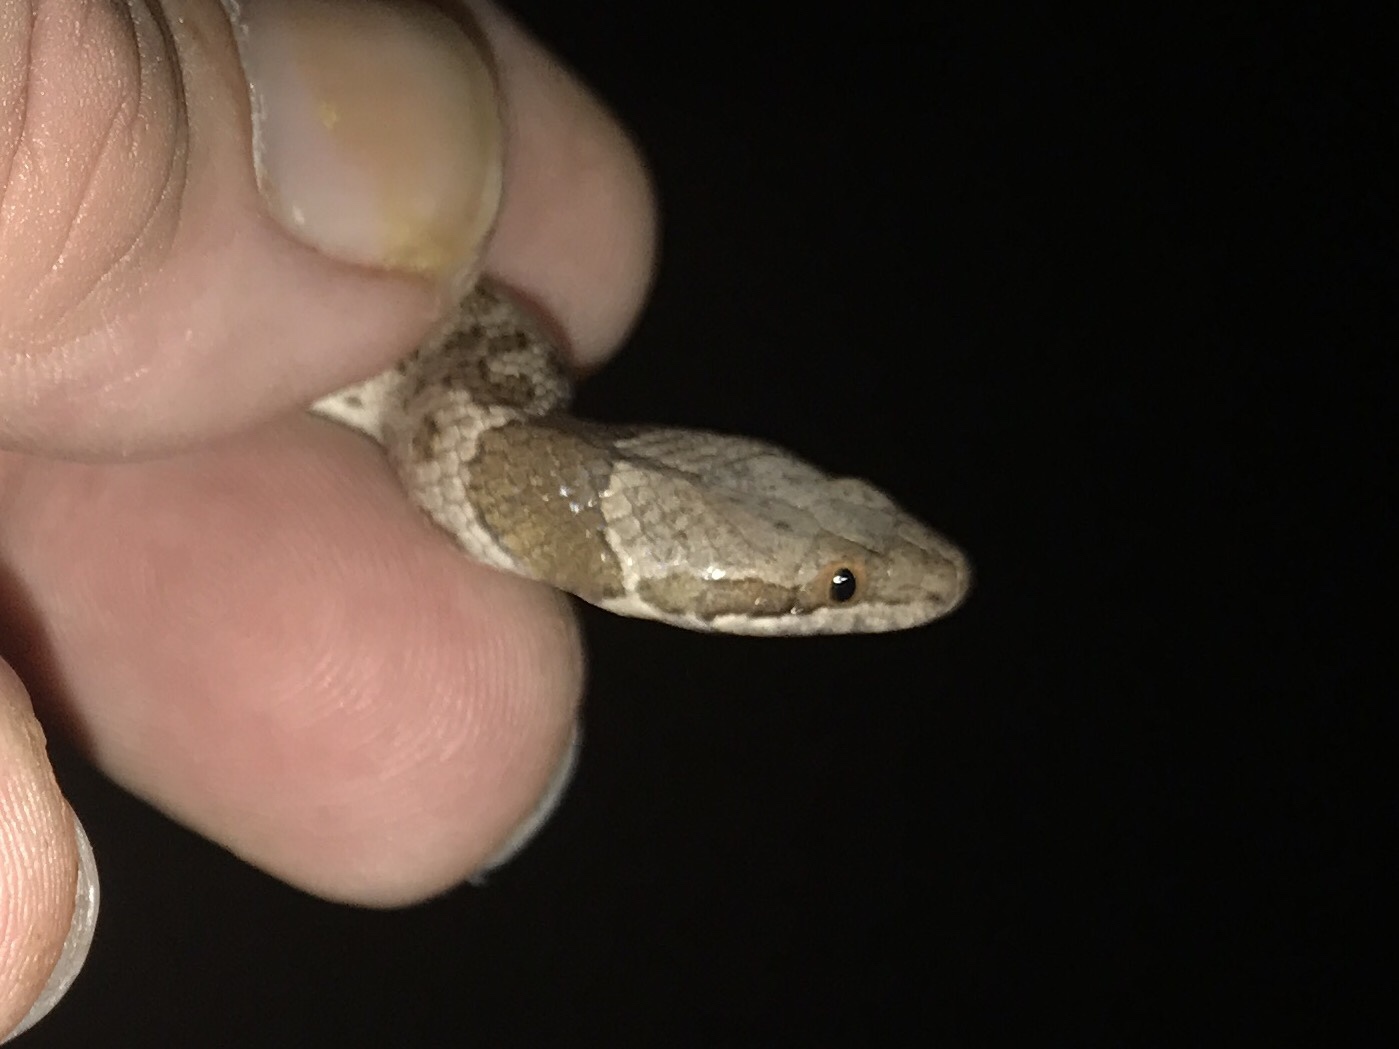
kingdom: Animalia
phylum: Chordata
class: Squamata
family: Colubridae
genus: Hypsiglena
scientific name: Hypsiglena chlorophaea
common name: Desert nightsnake
